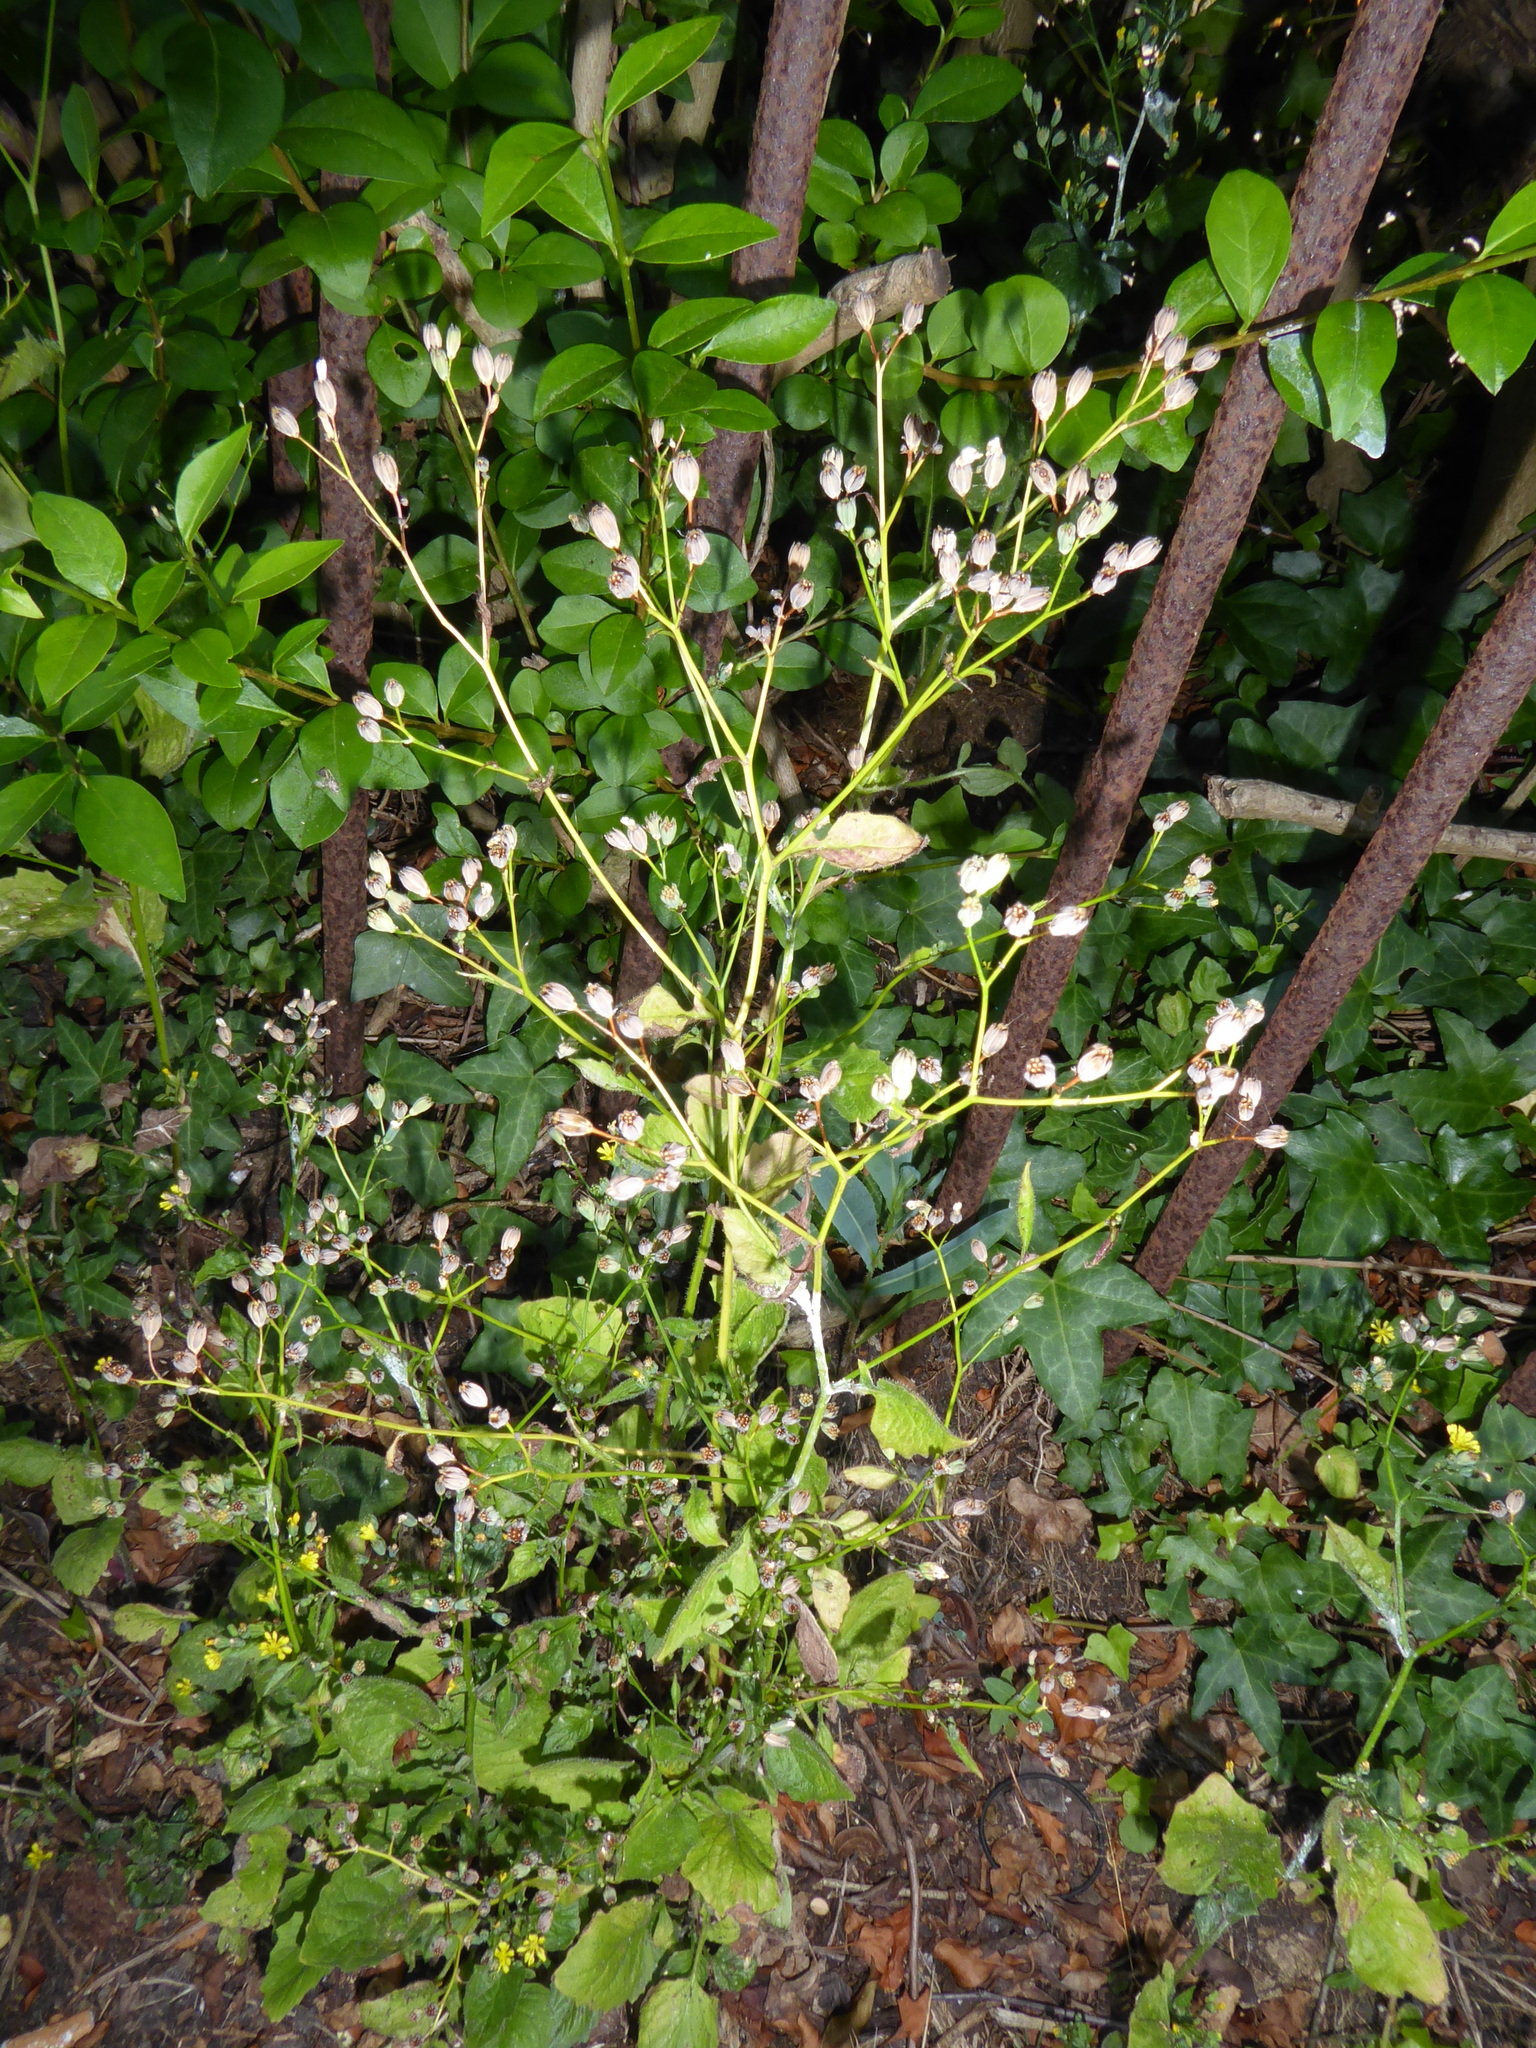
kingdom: Plantae
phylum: Tracheophyta
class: Magnoliopsida
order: Asterales
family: Asteraceae
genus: Lapsana
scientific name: Lapsana communis
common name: Nipplewort
